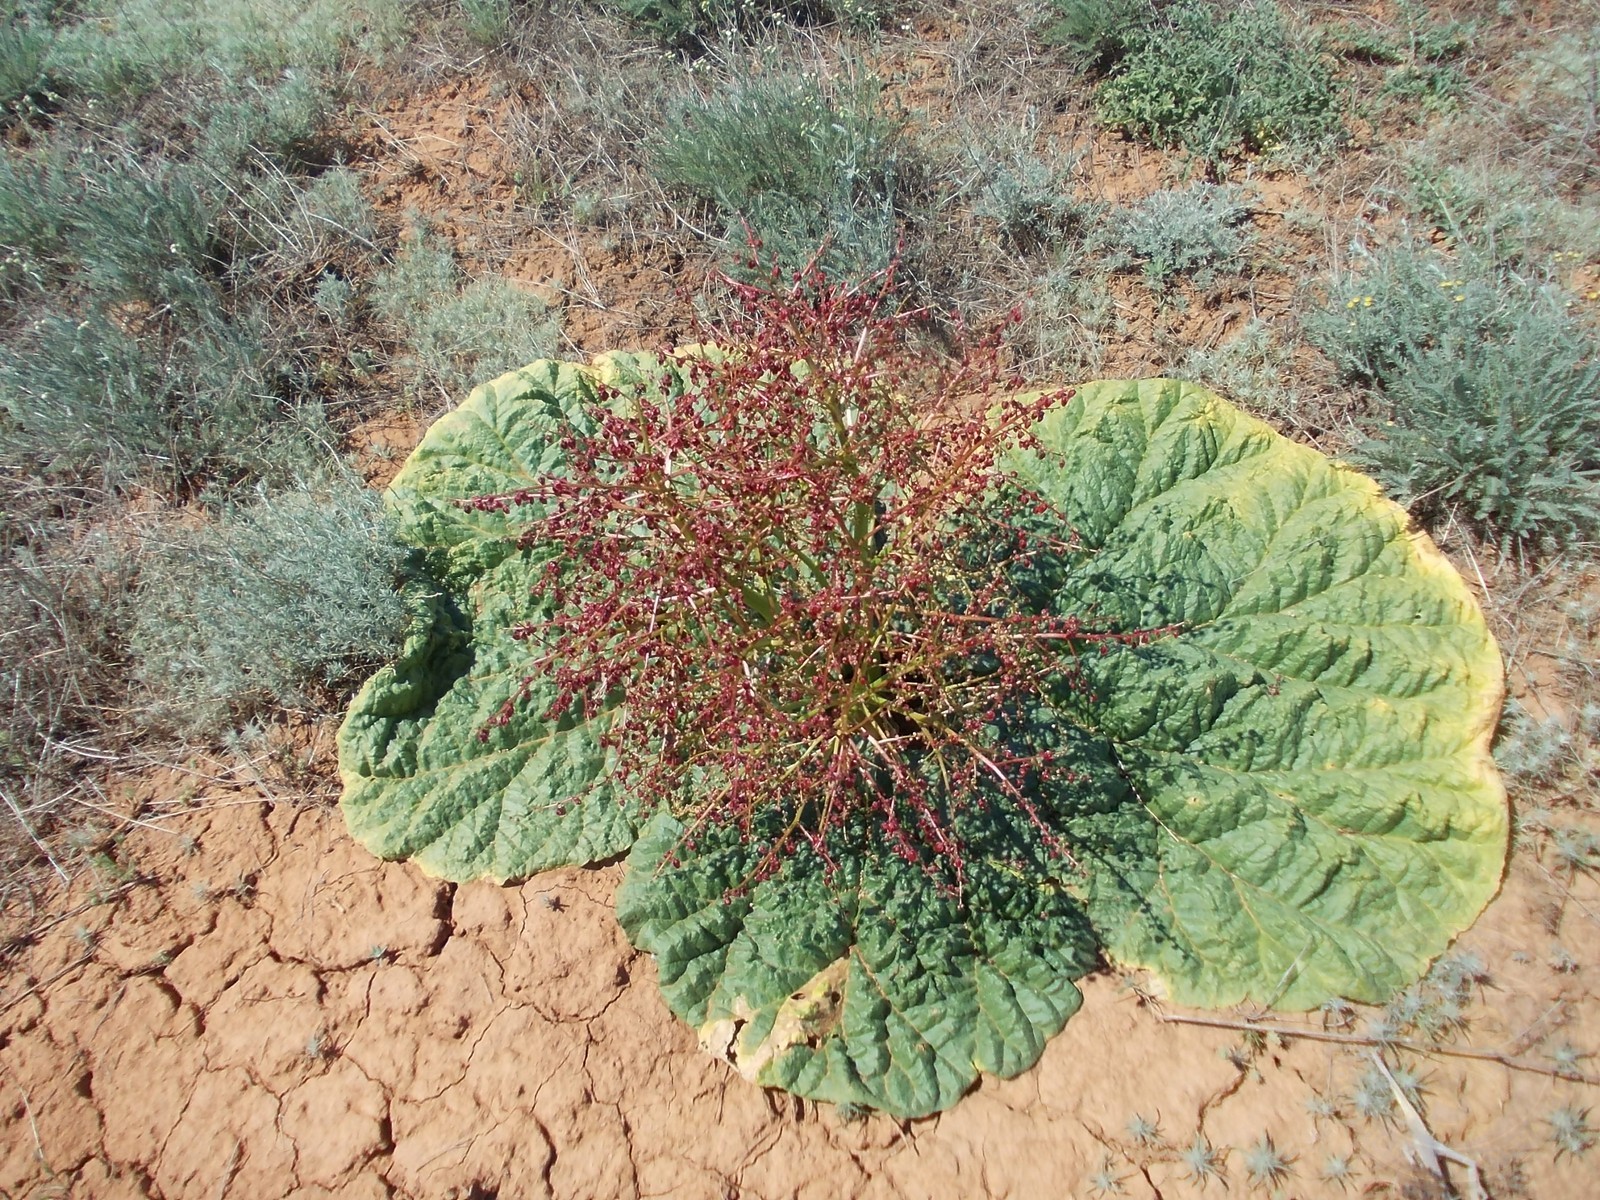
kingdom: Plantae
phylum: Tracheophyta
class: Magnoliopsida
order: Caryophyllales
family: Polygonaceae
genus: Rheum
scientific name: Rheum tataricum
